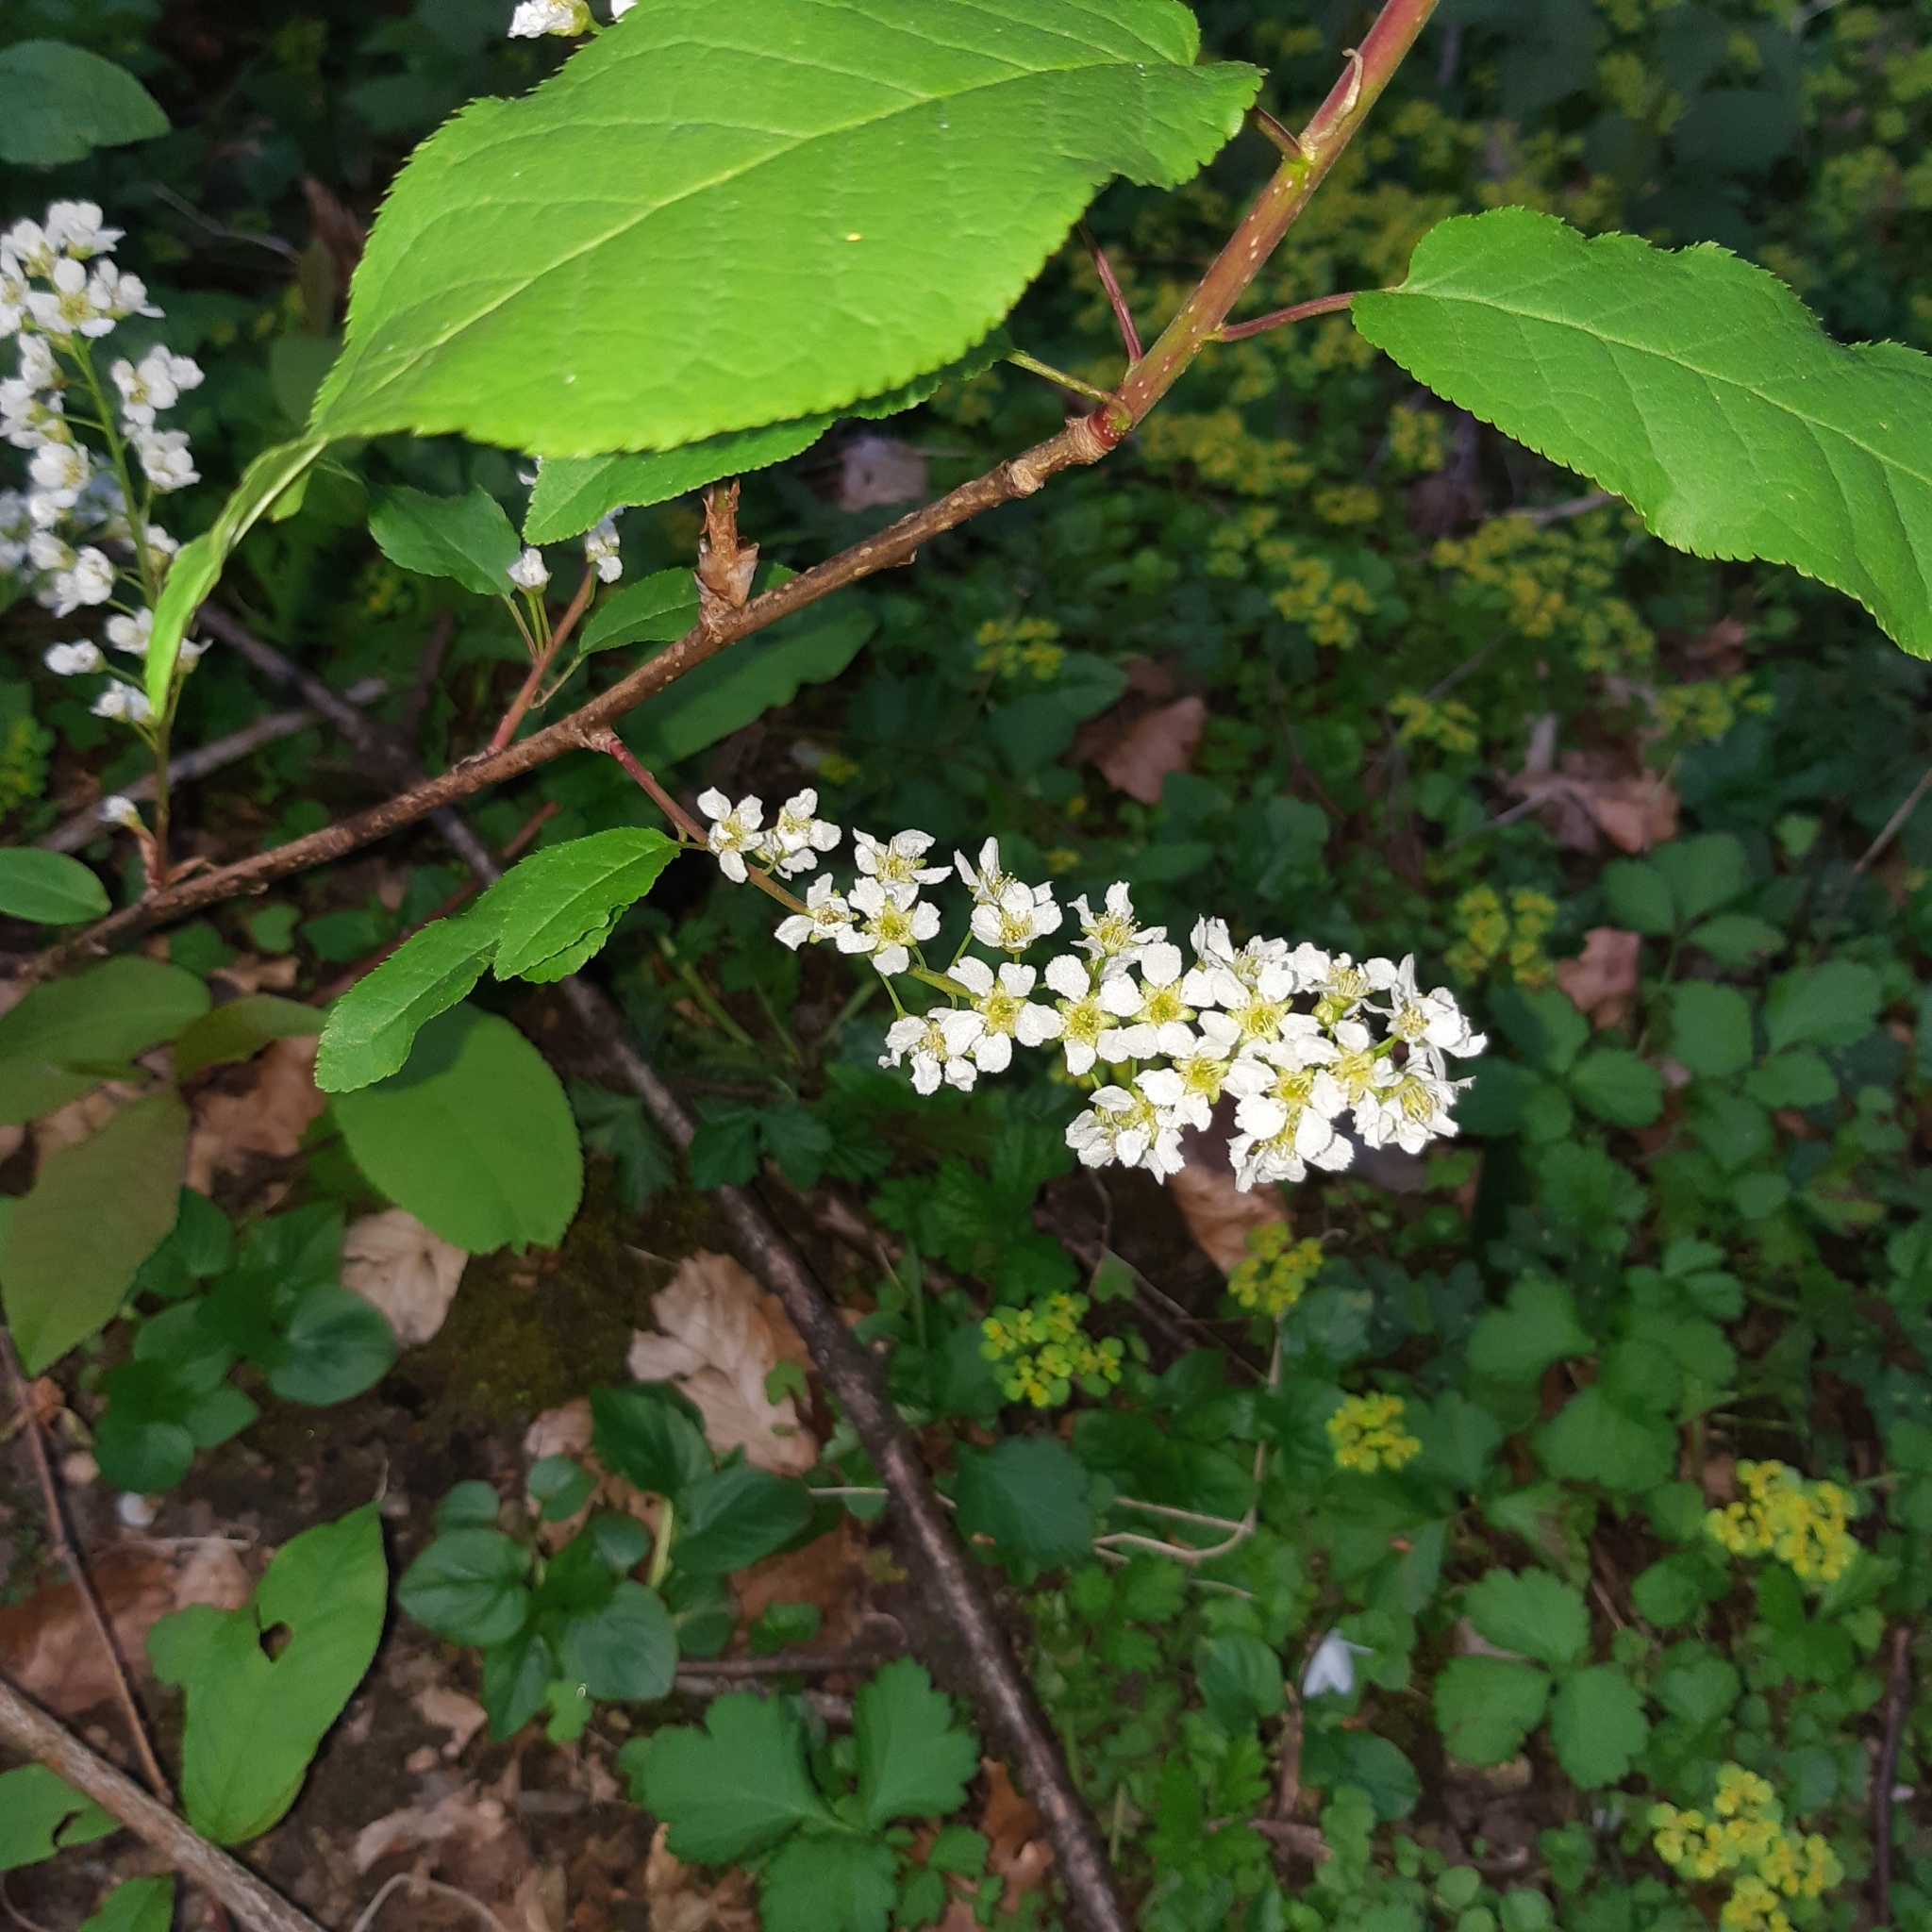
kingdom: Plantae
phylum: Tracheophyta
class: Magnoliopsida
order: Rosales
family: Rosaceae
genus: Prunus
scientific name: Prunus padus
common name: Bird cherry
